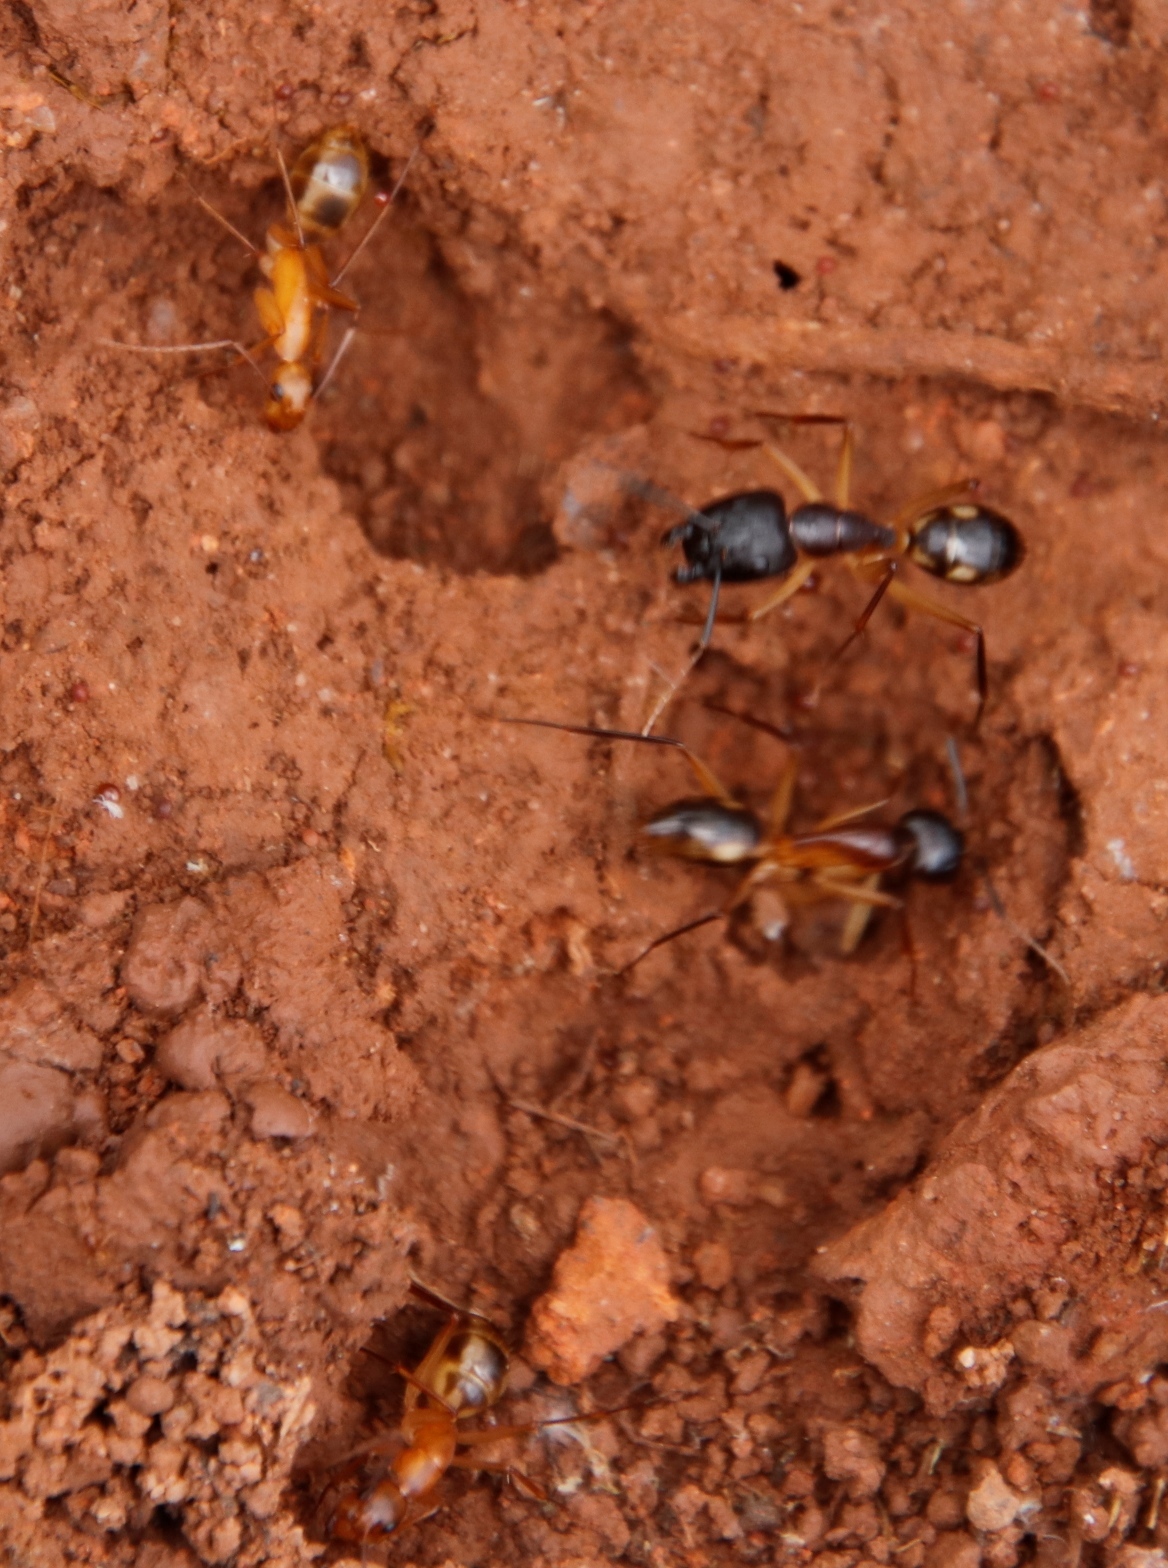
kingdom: Animalia
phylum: Arthropoda
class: Insecta
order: Hymenoptera
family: Formicidae
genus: Camponotus
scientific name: Camponotus maculatus
